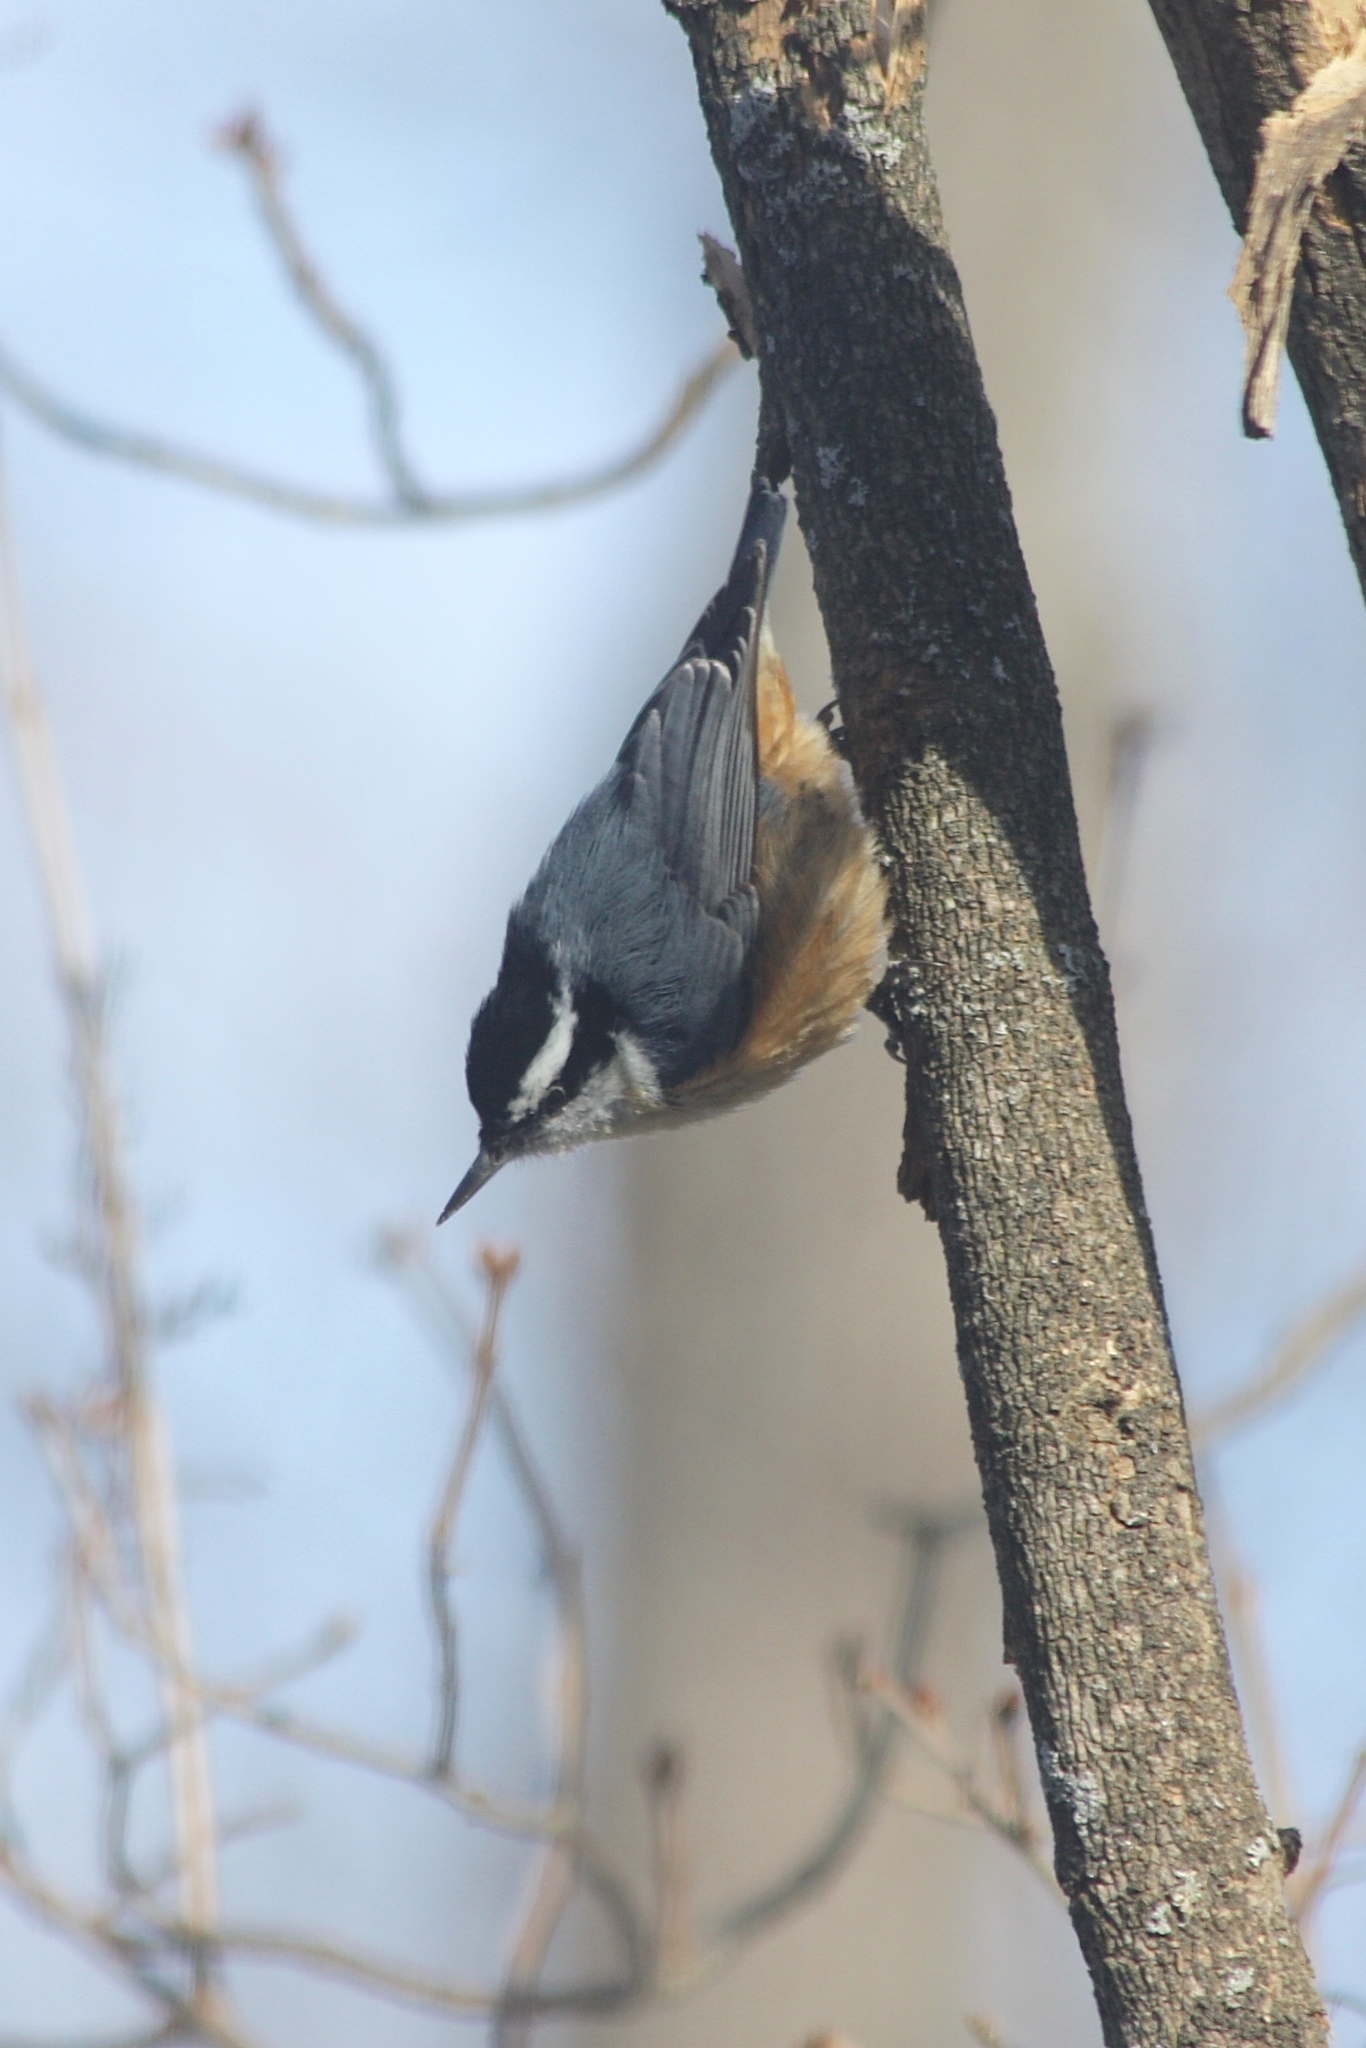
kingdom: Animalia
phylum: Chordata
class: Aves
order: Passeriformes
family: Sittidae
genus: Sitta
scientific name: Sitta canadensis
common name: Red-breasted nuthatch
